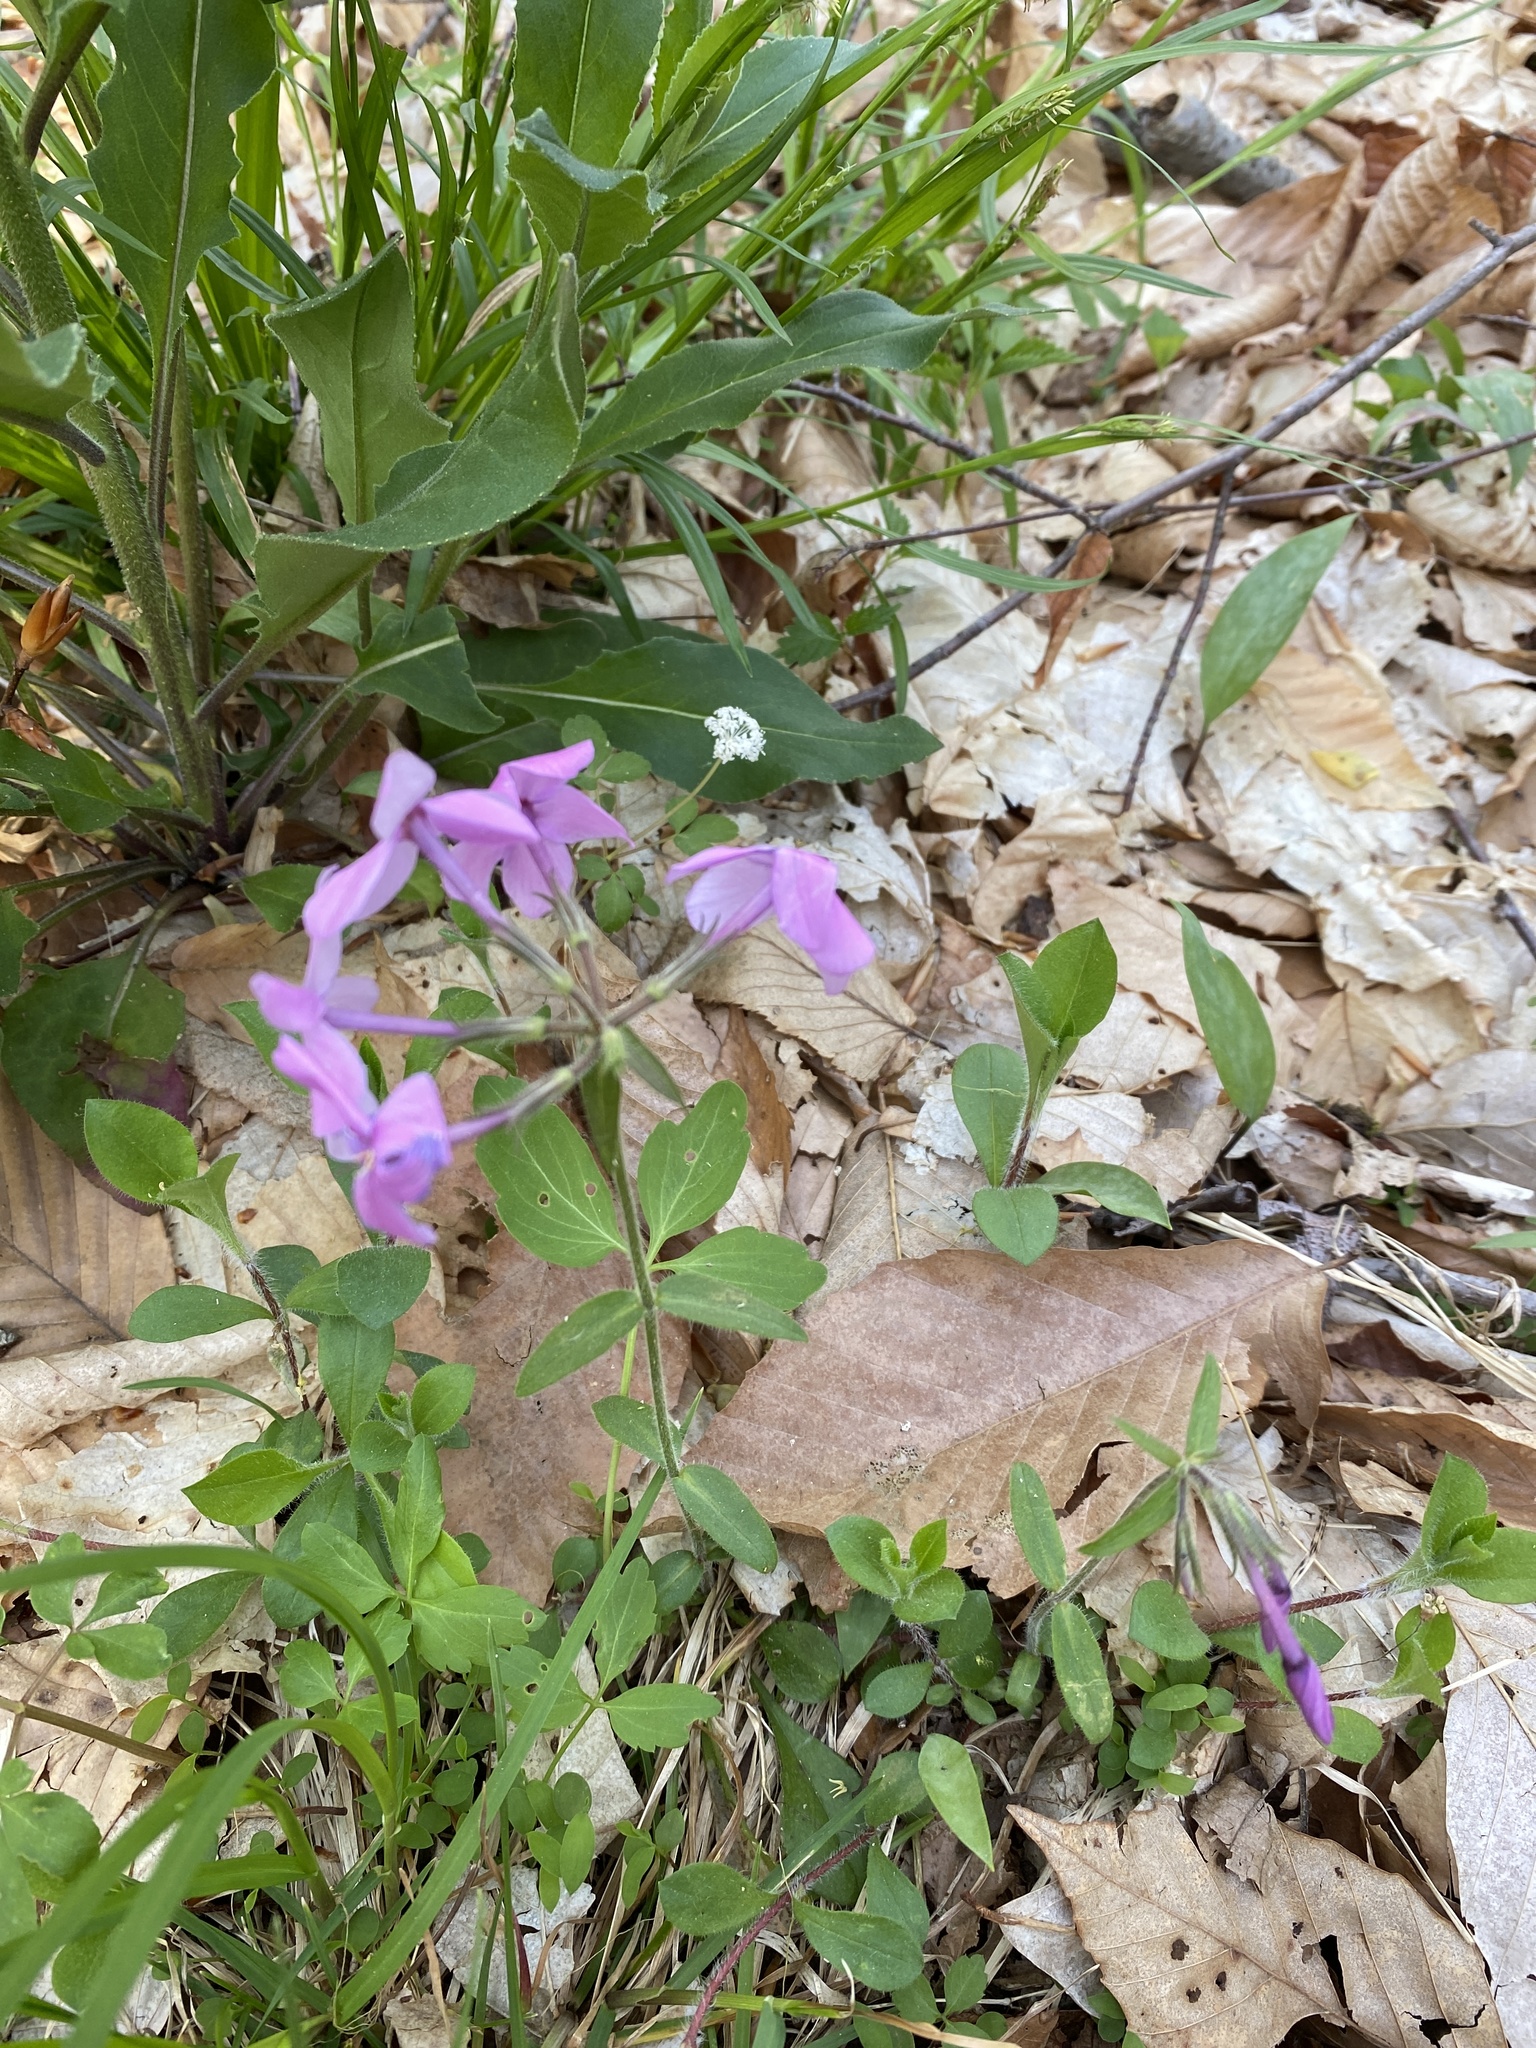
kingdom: Plantae
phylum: Tracheophyta
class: Magnoliopsida
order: Ericales
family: Polemoniaceae
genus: Phlox
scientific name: Phlox stolonifera
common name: Creeping phlox
